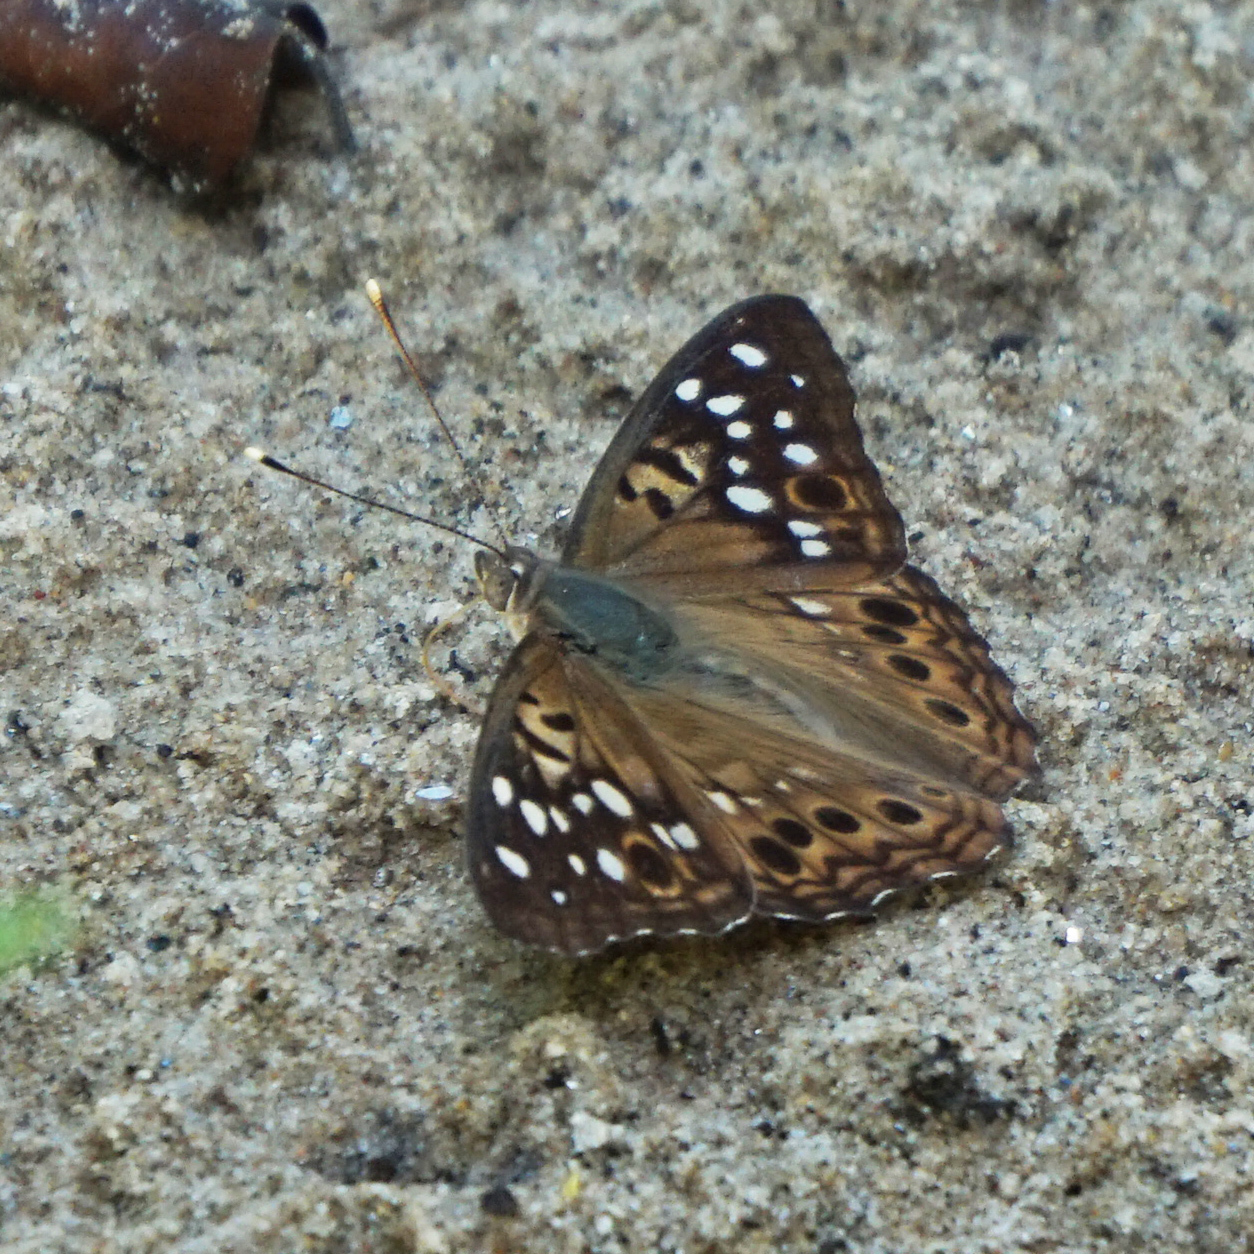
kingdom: Animalia
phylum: Arthropoda
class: Insecta
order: Lepidoptera
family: Nymphalidae
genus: Asterocampa
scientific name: Asterocampa celtis
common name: Hackberry emperor
